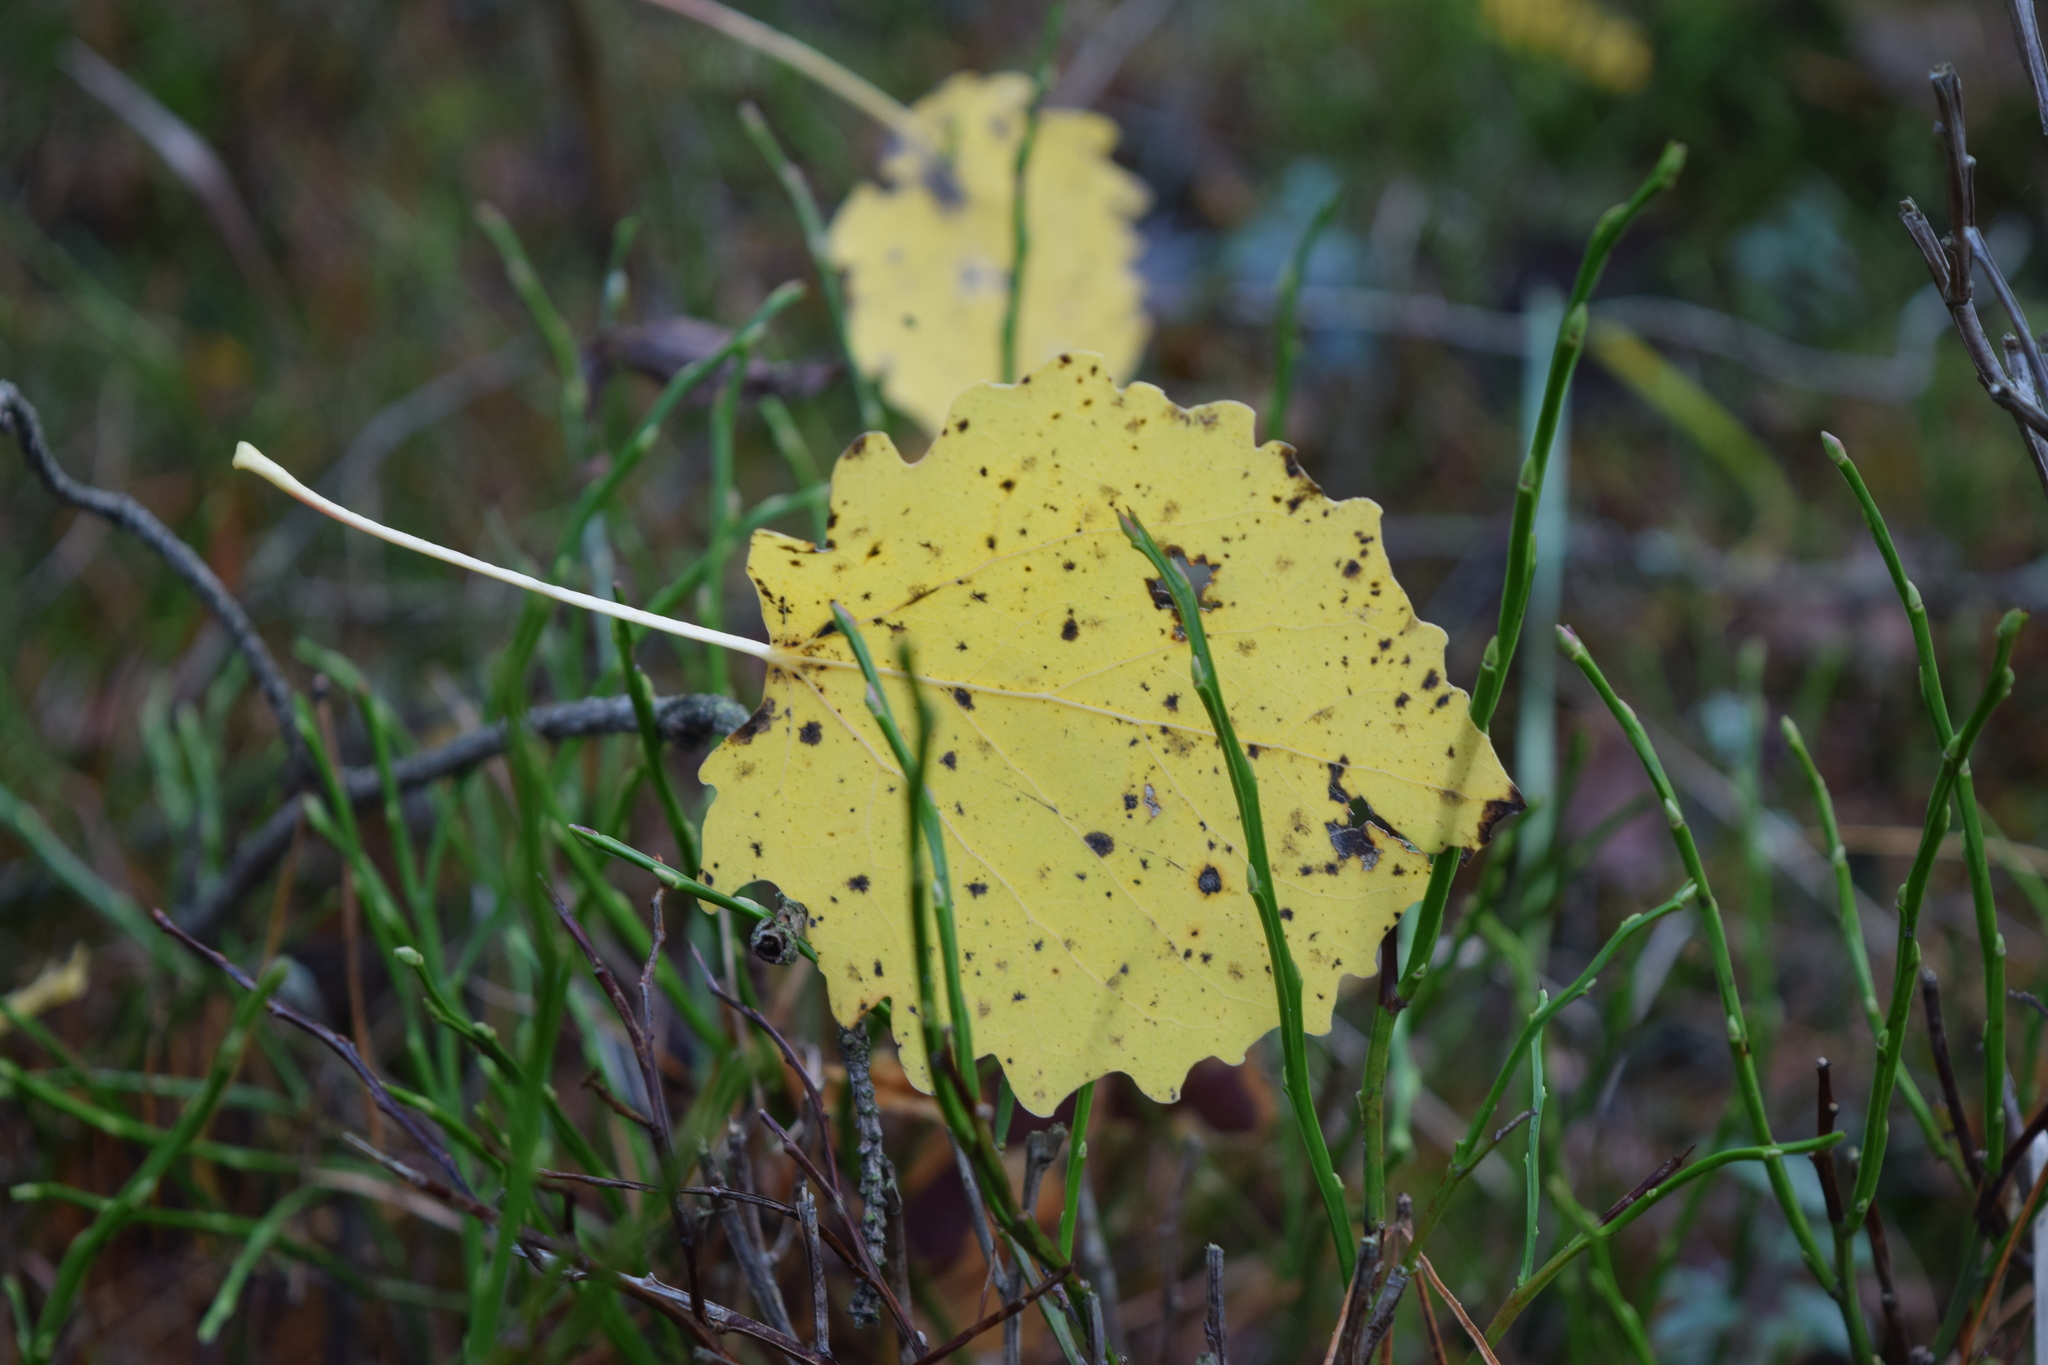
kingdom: Plantae
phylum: Tracheophyta
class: Magnoliopsida
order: Malpighiales
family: Salicaceae
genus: Populus
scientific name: Populus tremula
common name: European aspen
